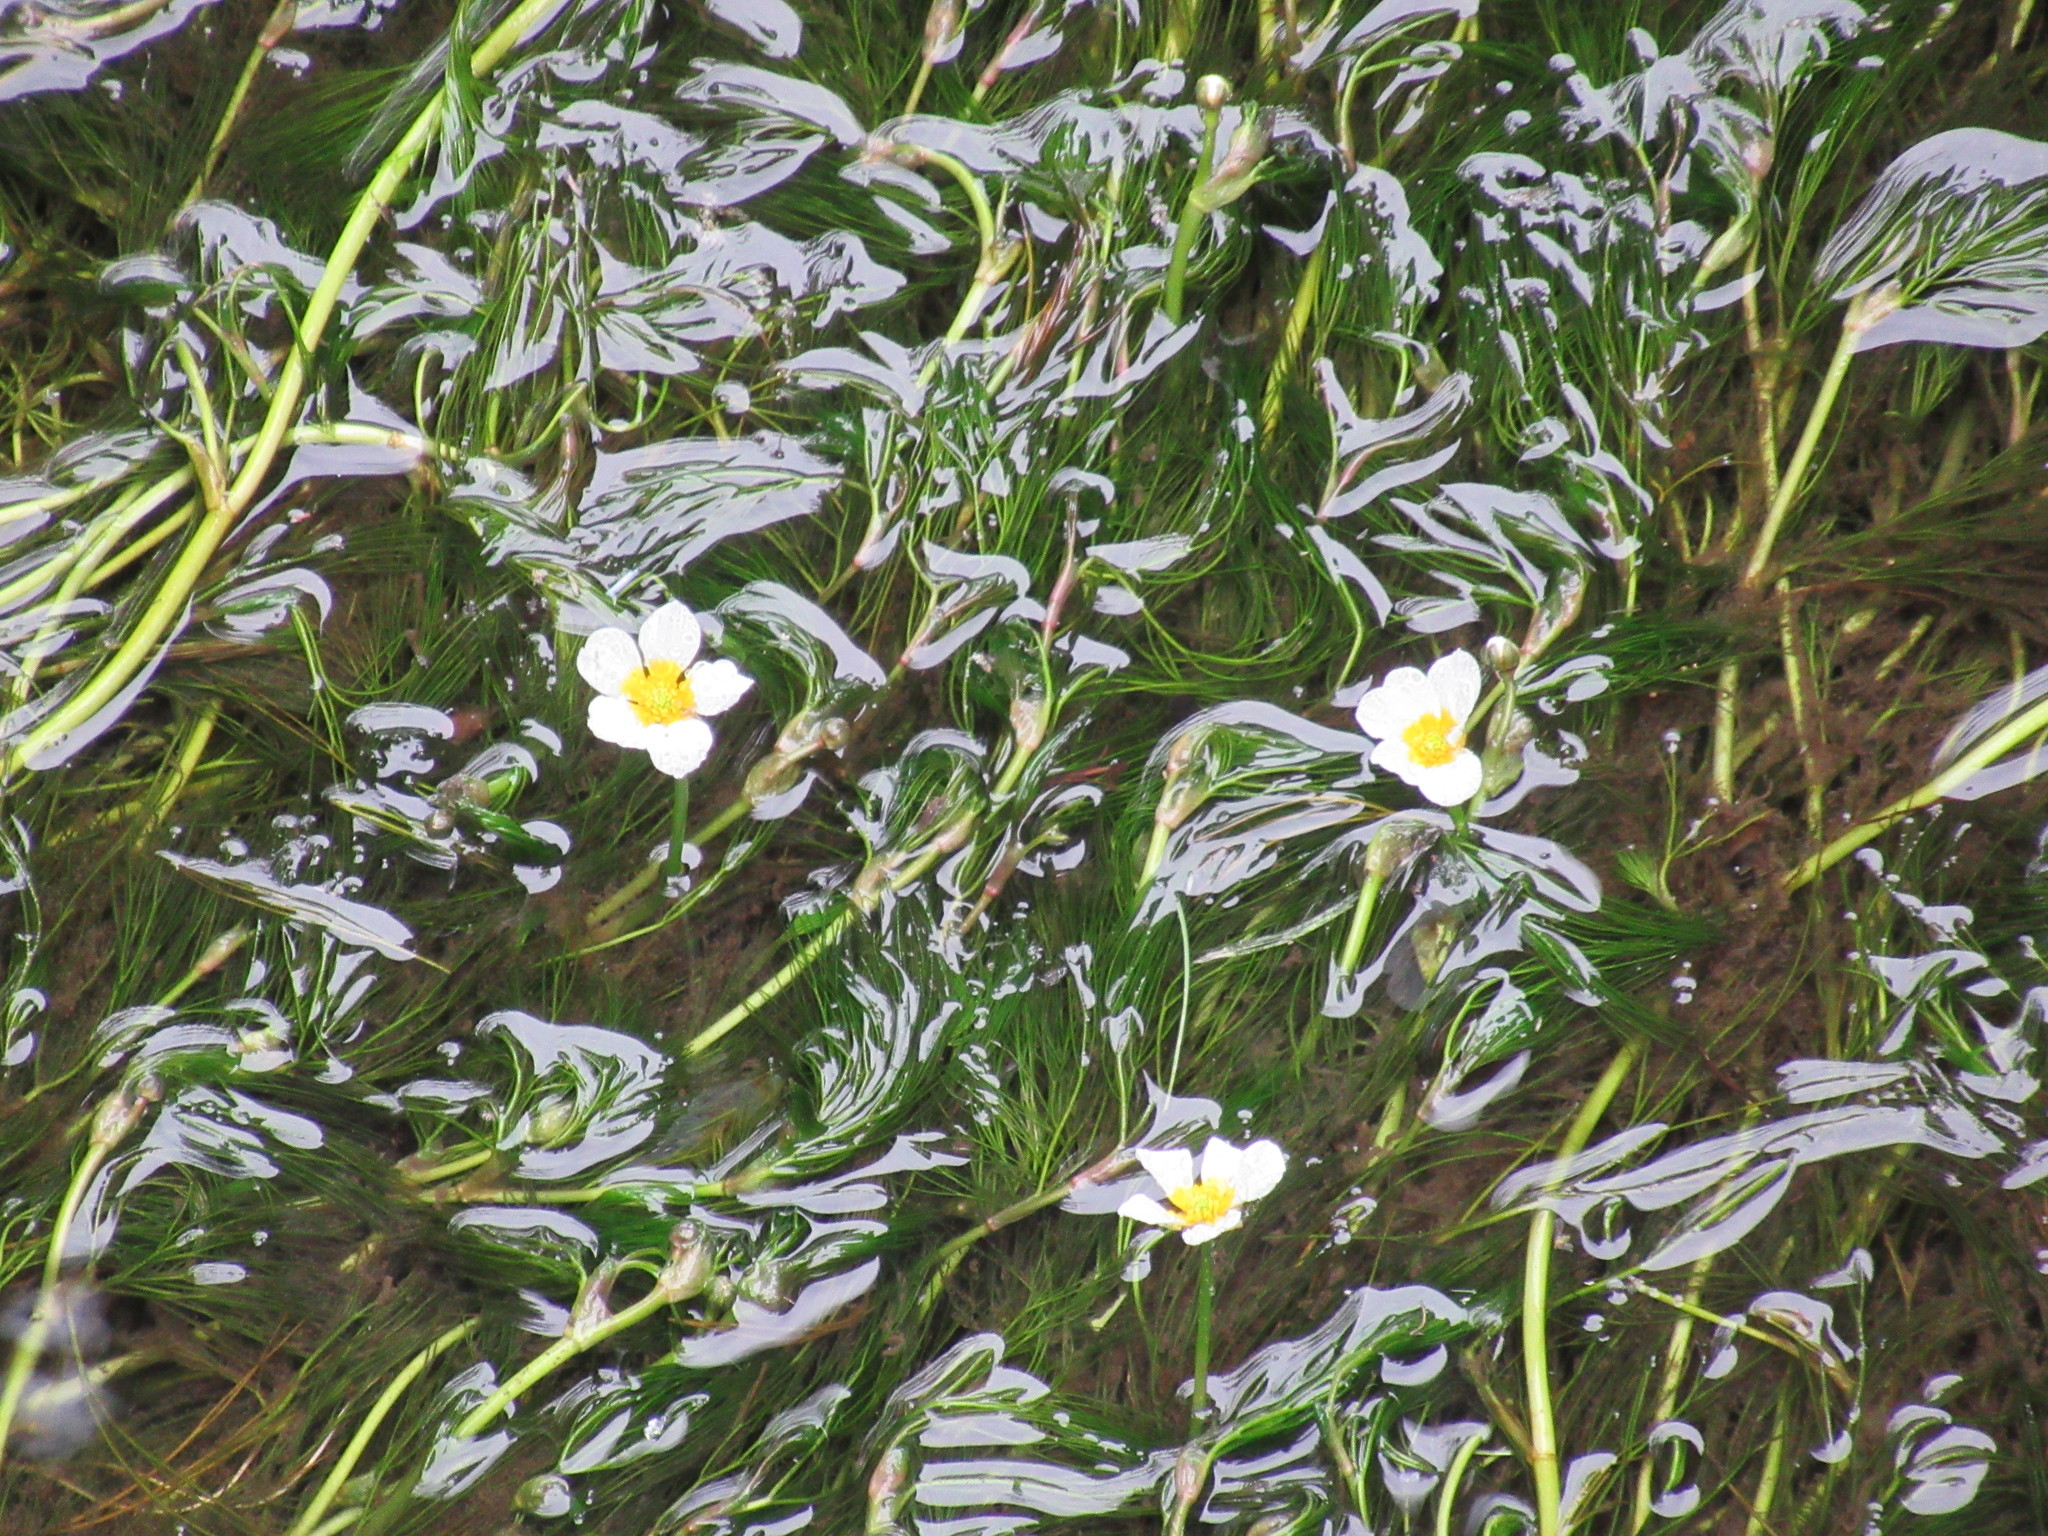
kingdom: Plantae
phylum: Tracheophyta
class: Magnoliopsida
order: Ranunculales
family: Ranunculaceae
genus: Ranunculus
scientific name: Ranunculus
